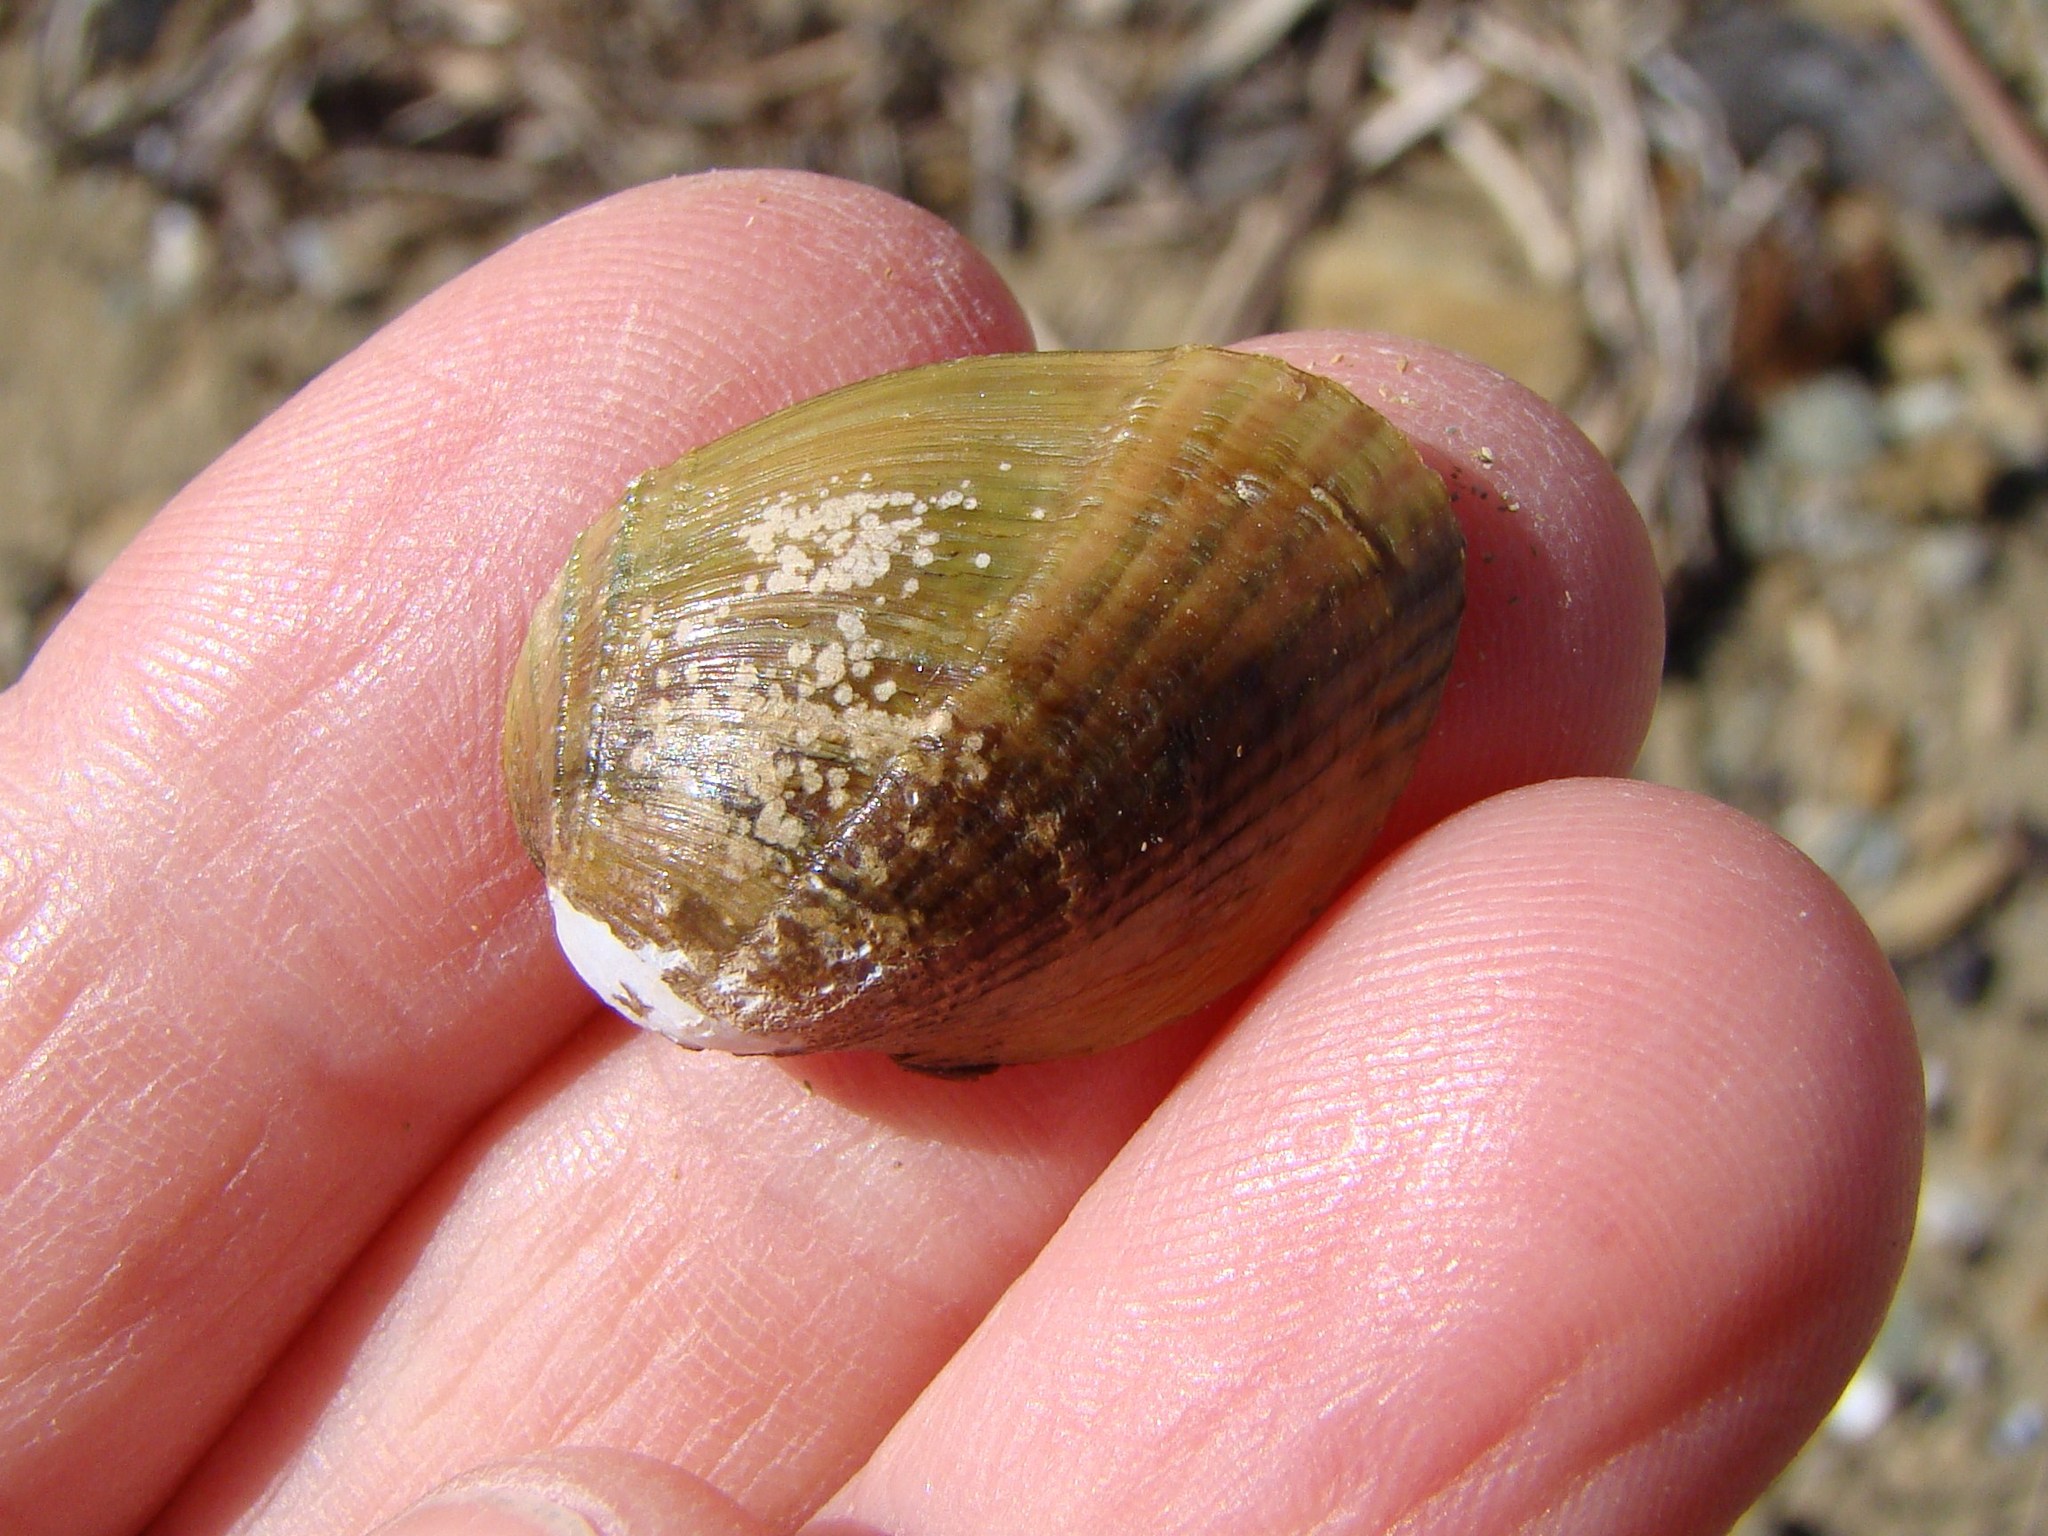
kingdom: Animalia
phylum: Mollusca
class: Bivalvia
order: Mytilida
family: Mytilidae
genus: Musculus
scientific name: Musculus impactus
